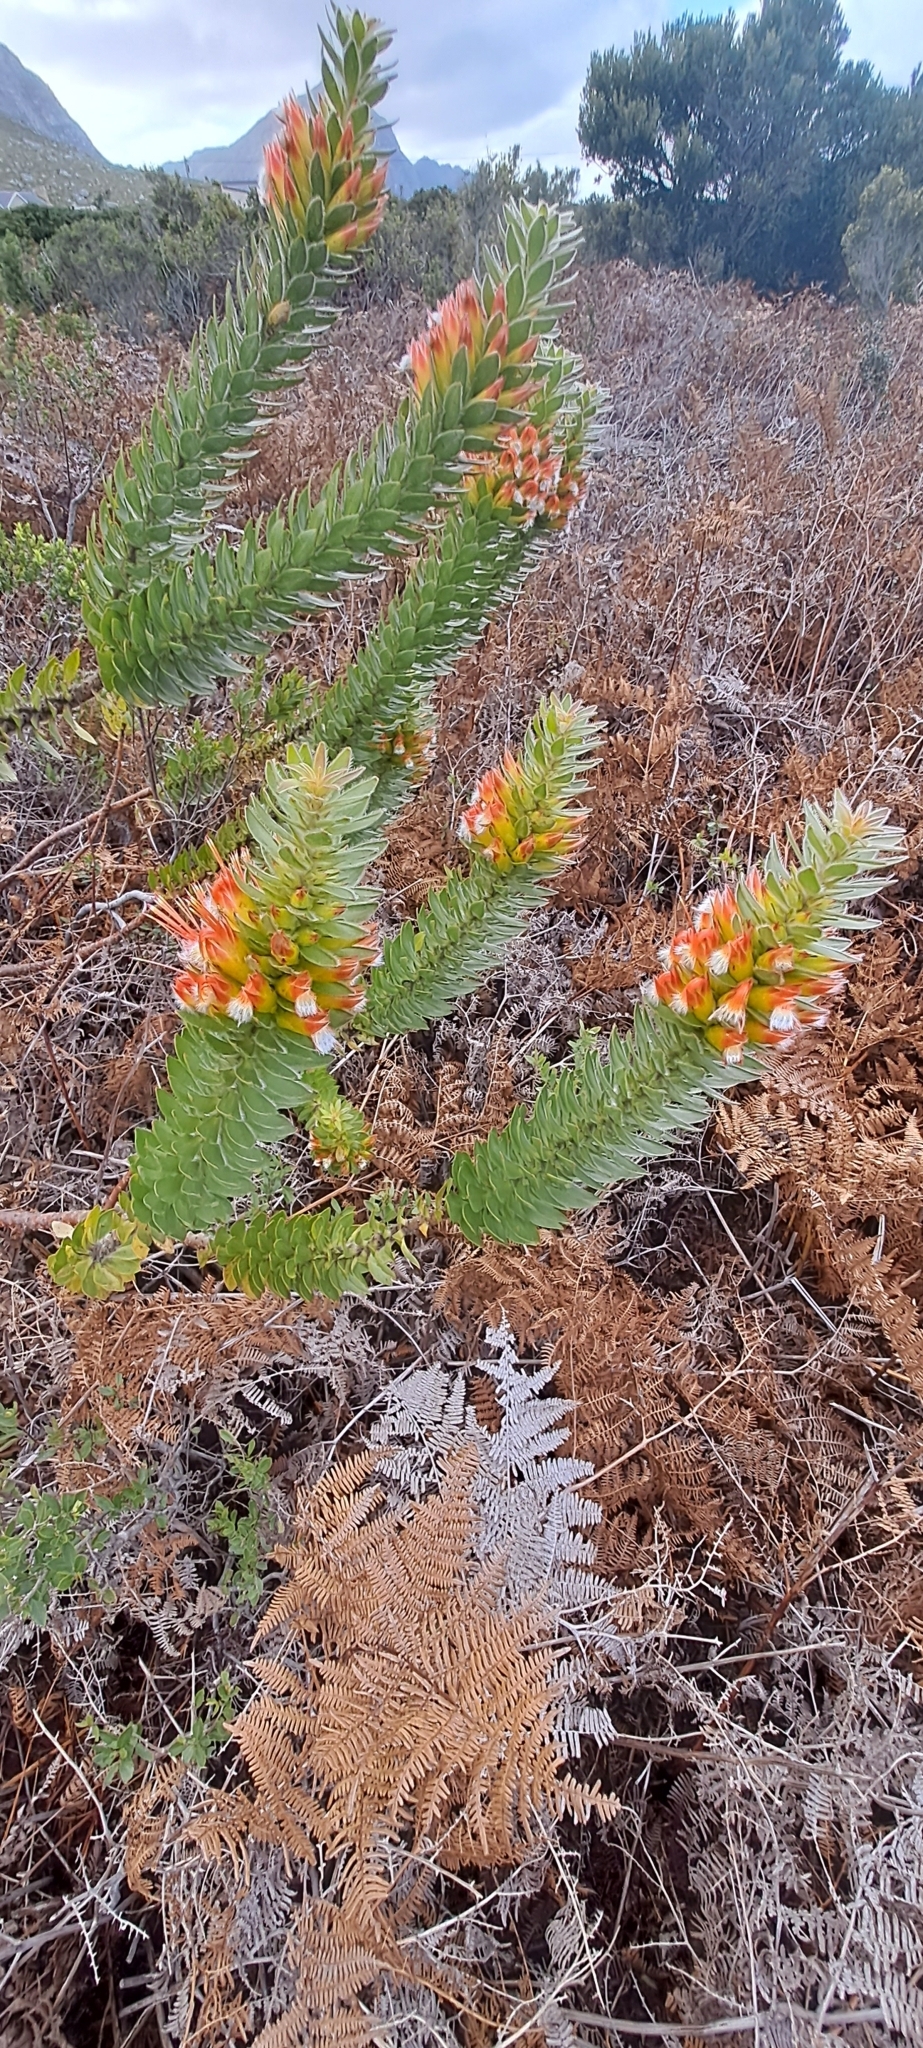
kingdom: Plantae
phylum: Tracheophyta
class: Magnoliopsida
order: Proteales
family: Proteaceae
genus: Mimetes
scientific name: Mimetes hirtus
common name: Marsh pagoda
